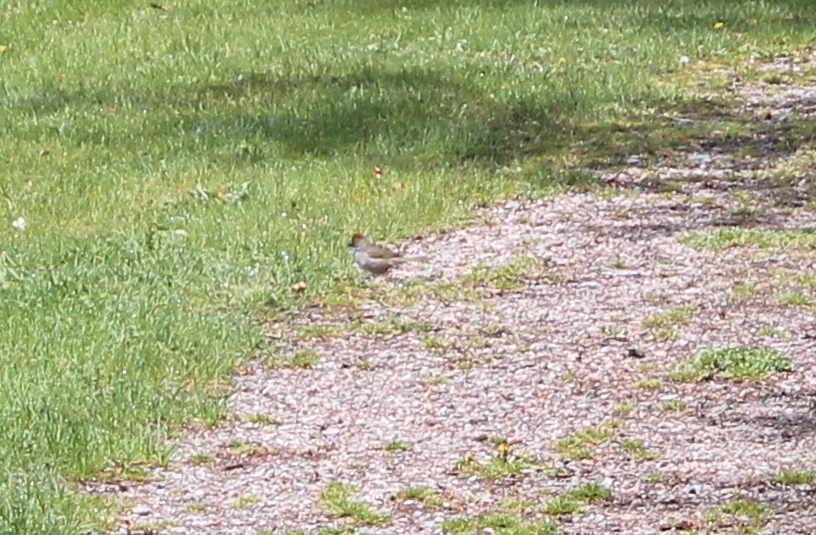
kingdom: Animalia
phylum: Chordata
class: Aves
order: Passeriformes
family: Passerellidae
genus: Pipilo
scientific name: Pipilo chlorurus
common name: Green-tailed towhee
